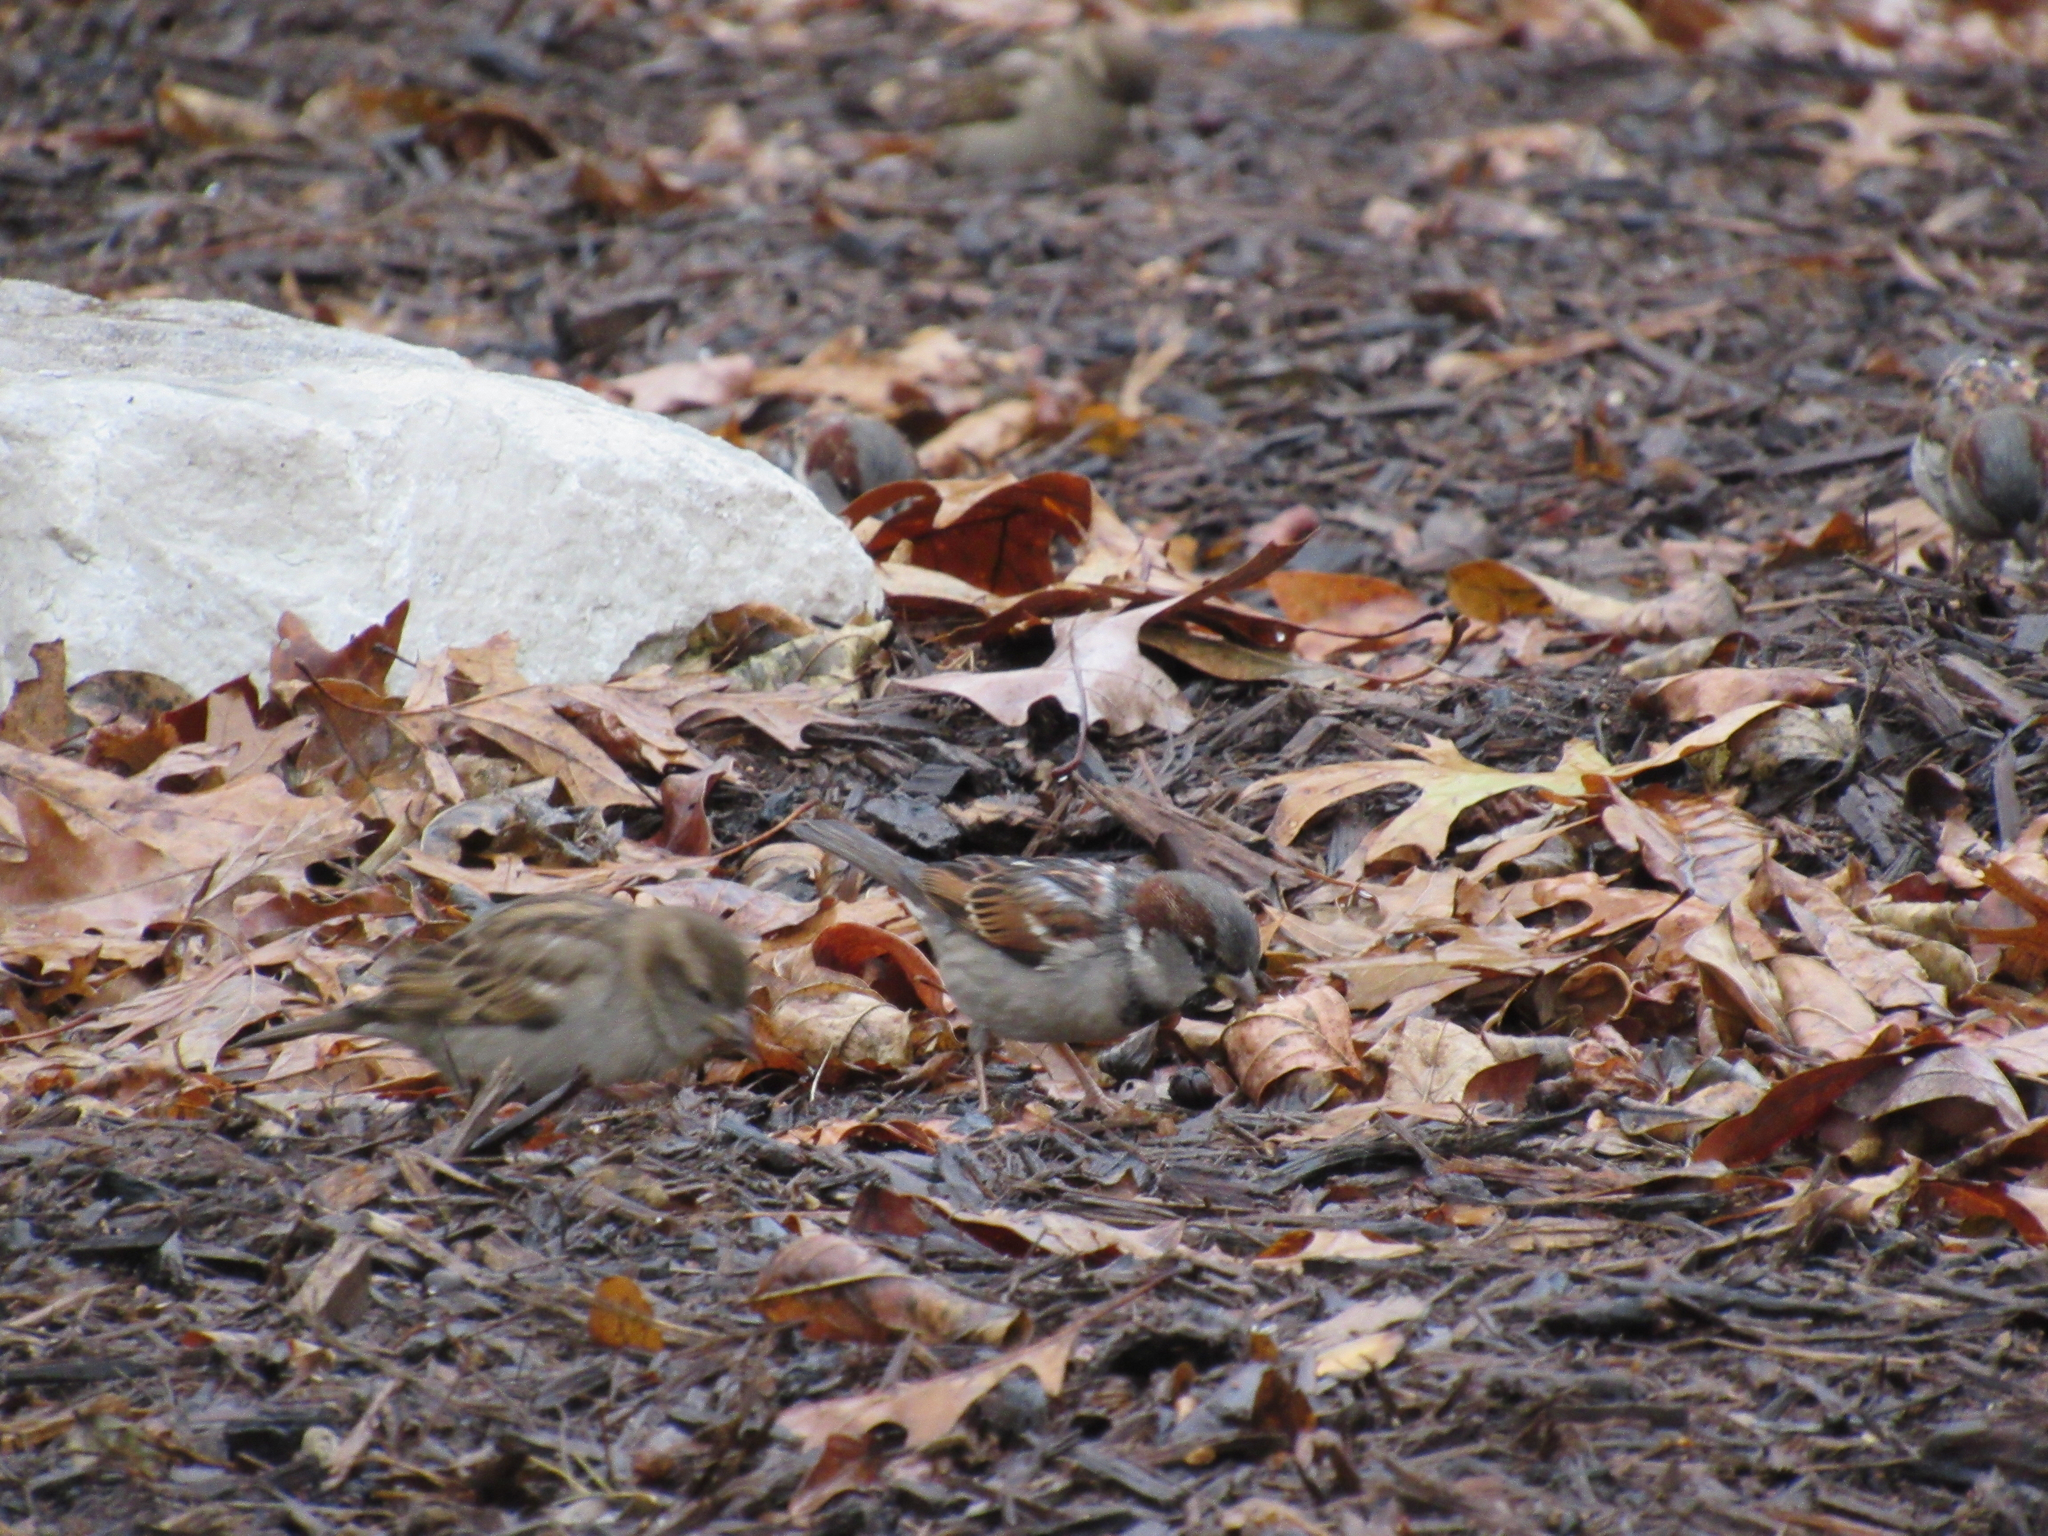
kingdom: Animalia
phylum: Chordata
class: Aves
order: Passeriformes
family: Passeridae
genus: Passer
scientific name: Passer domesticus
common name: House sparrow
